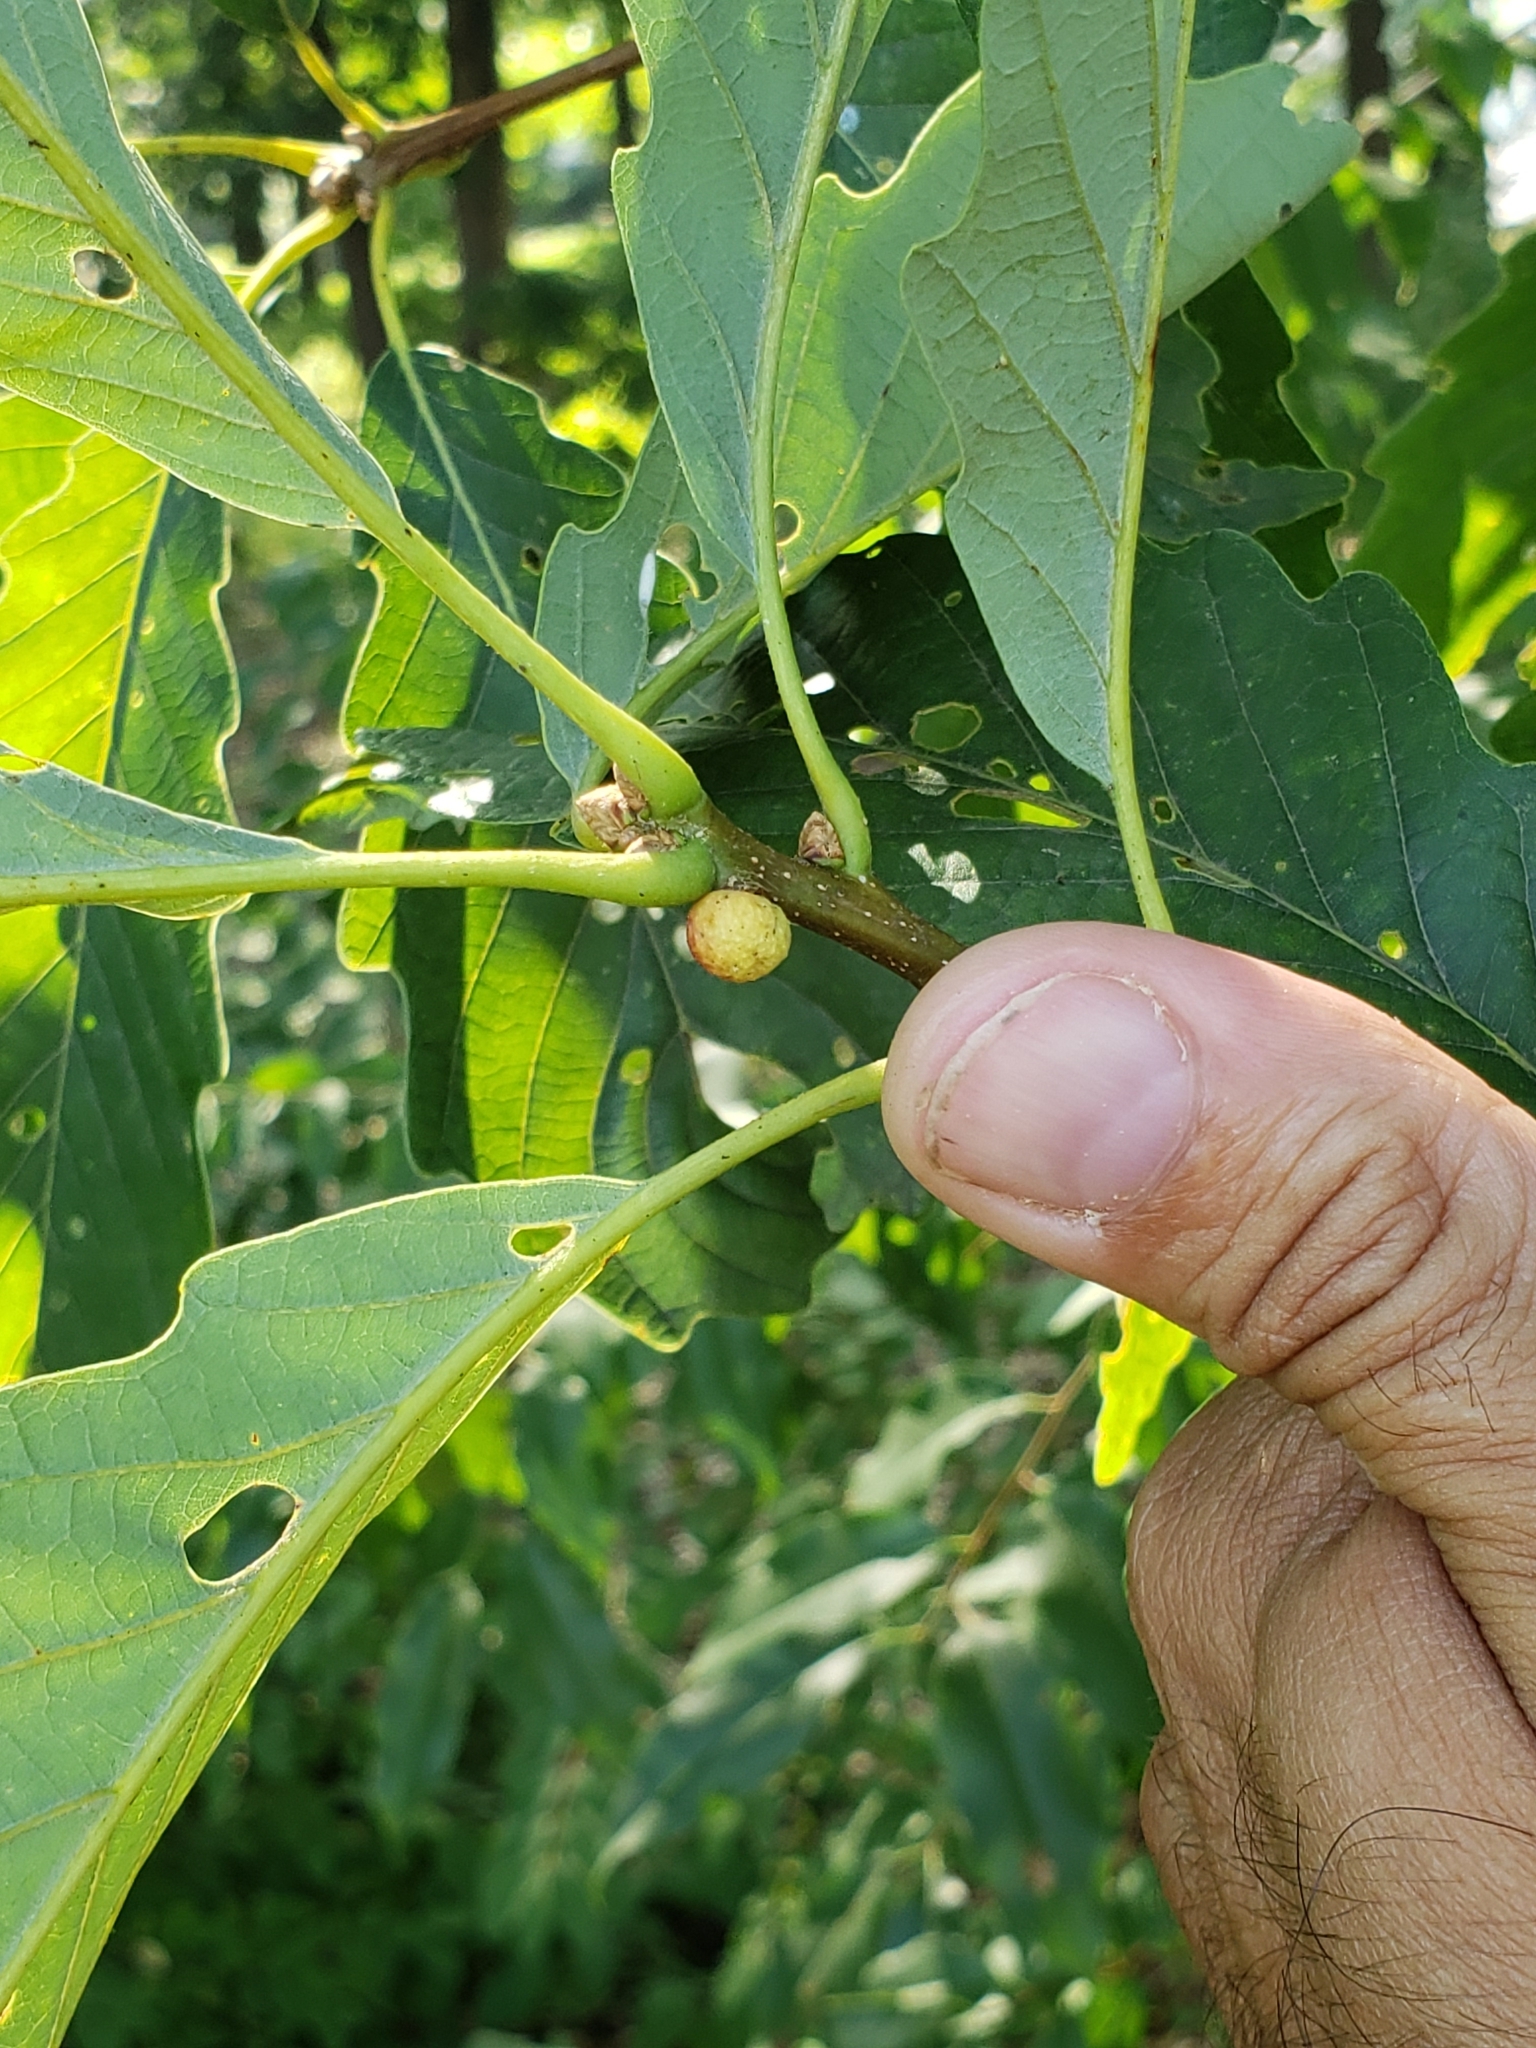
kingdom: Animalia
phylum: Arthropoda
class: Insecta
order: Hymenoptera
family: Cynipidae
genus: Disholcaspis
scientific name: Disholcaspis quercusglobulus
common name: Round bullet gall wasp
